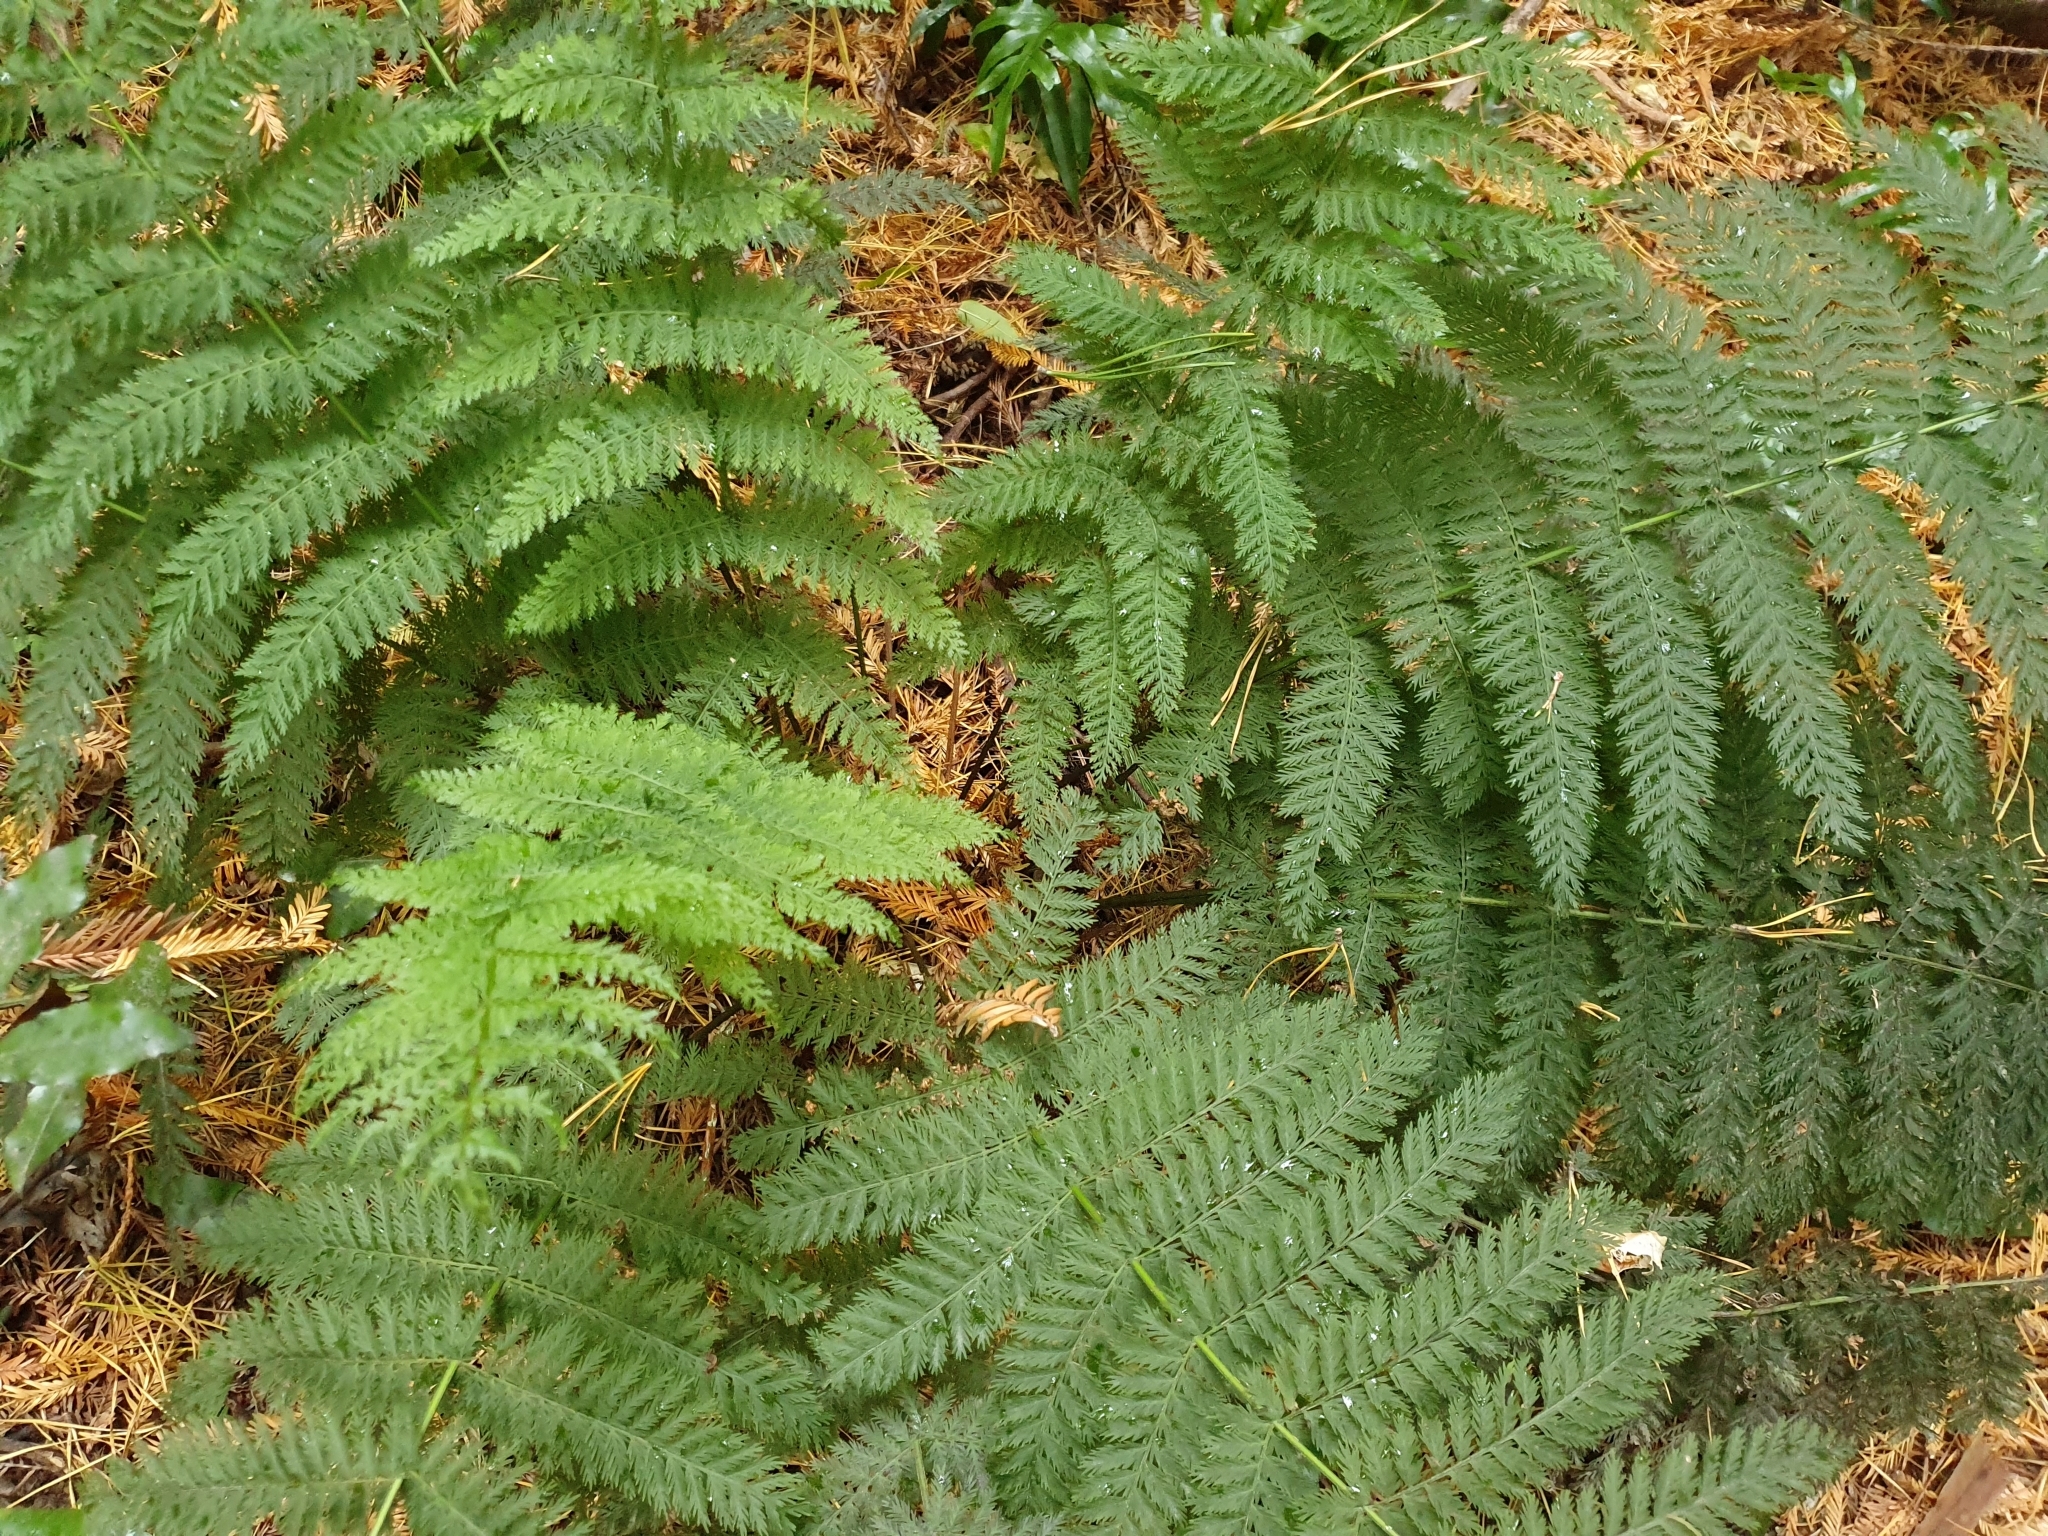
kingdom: Plantae
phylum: Tracheophyta
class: Polypodiopsida
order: Osmundales
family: Osmundaceae
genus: Leptopteris
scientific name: Leptopteris hymenophylloides
